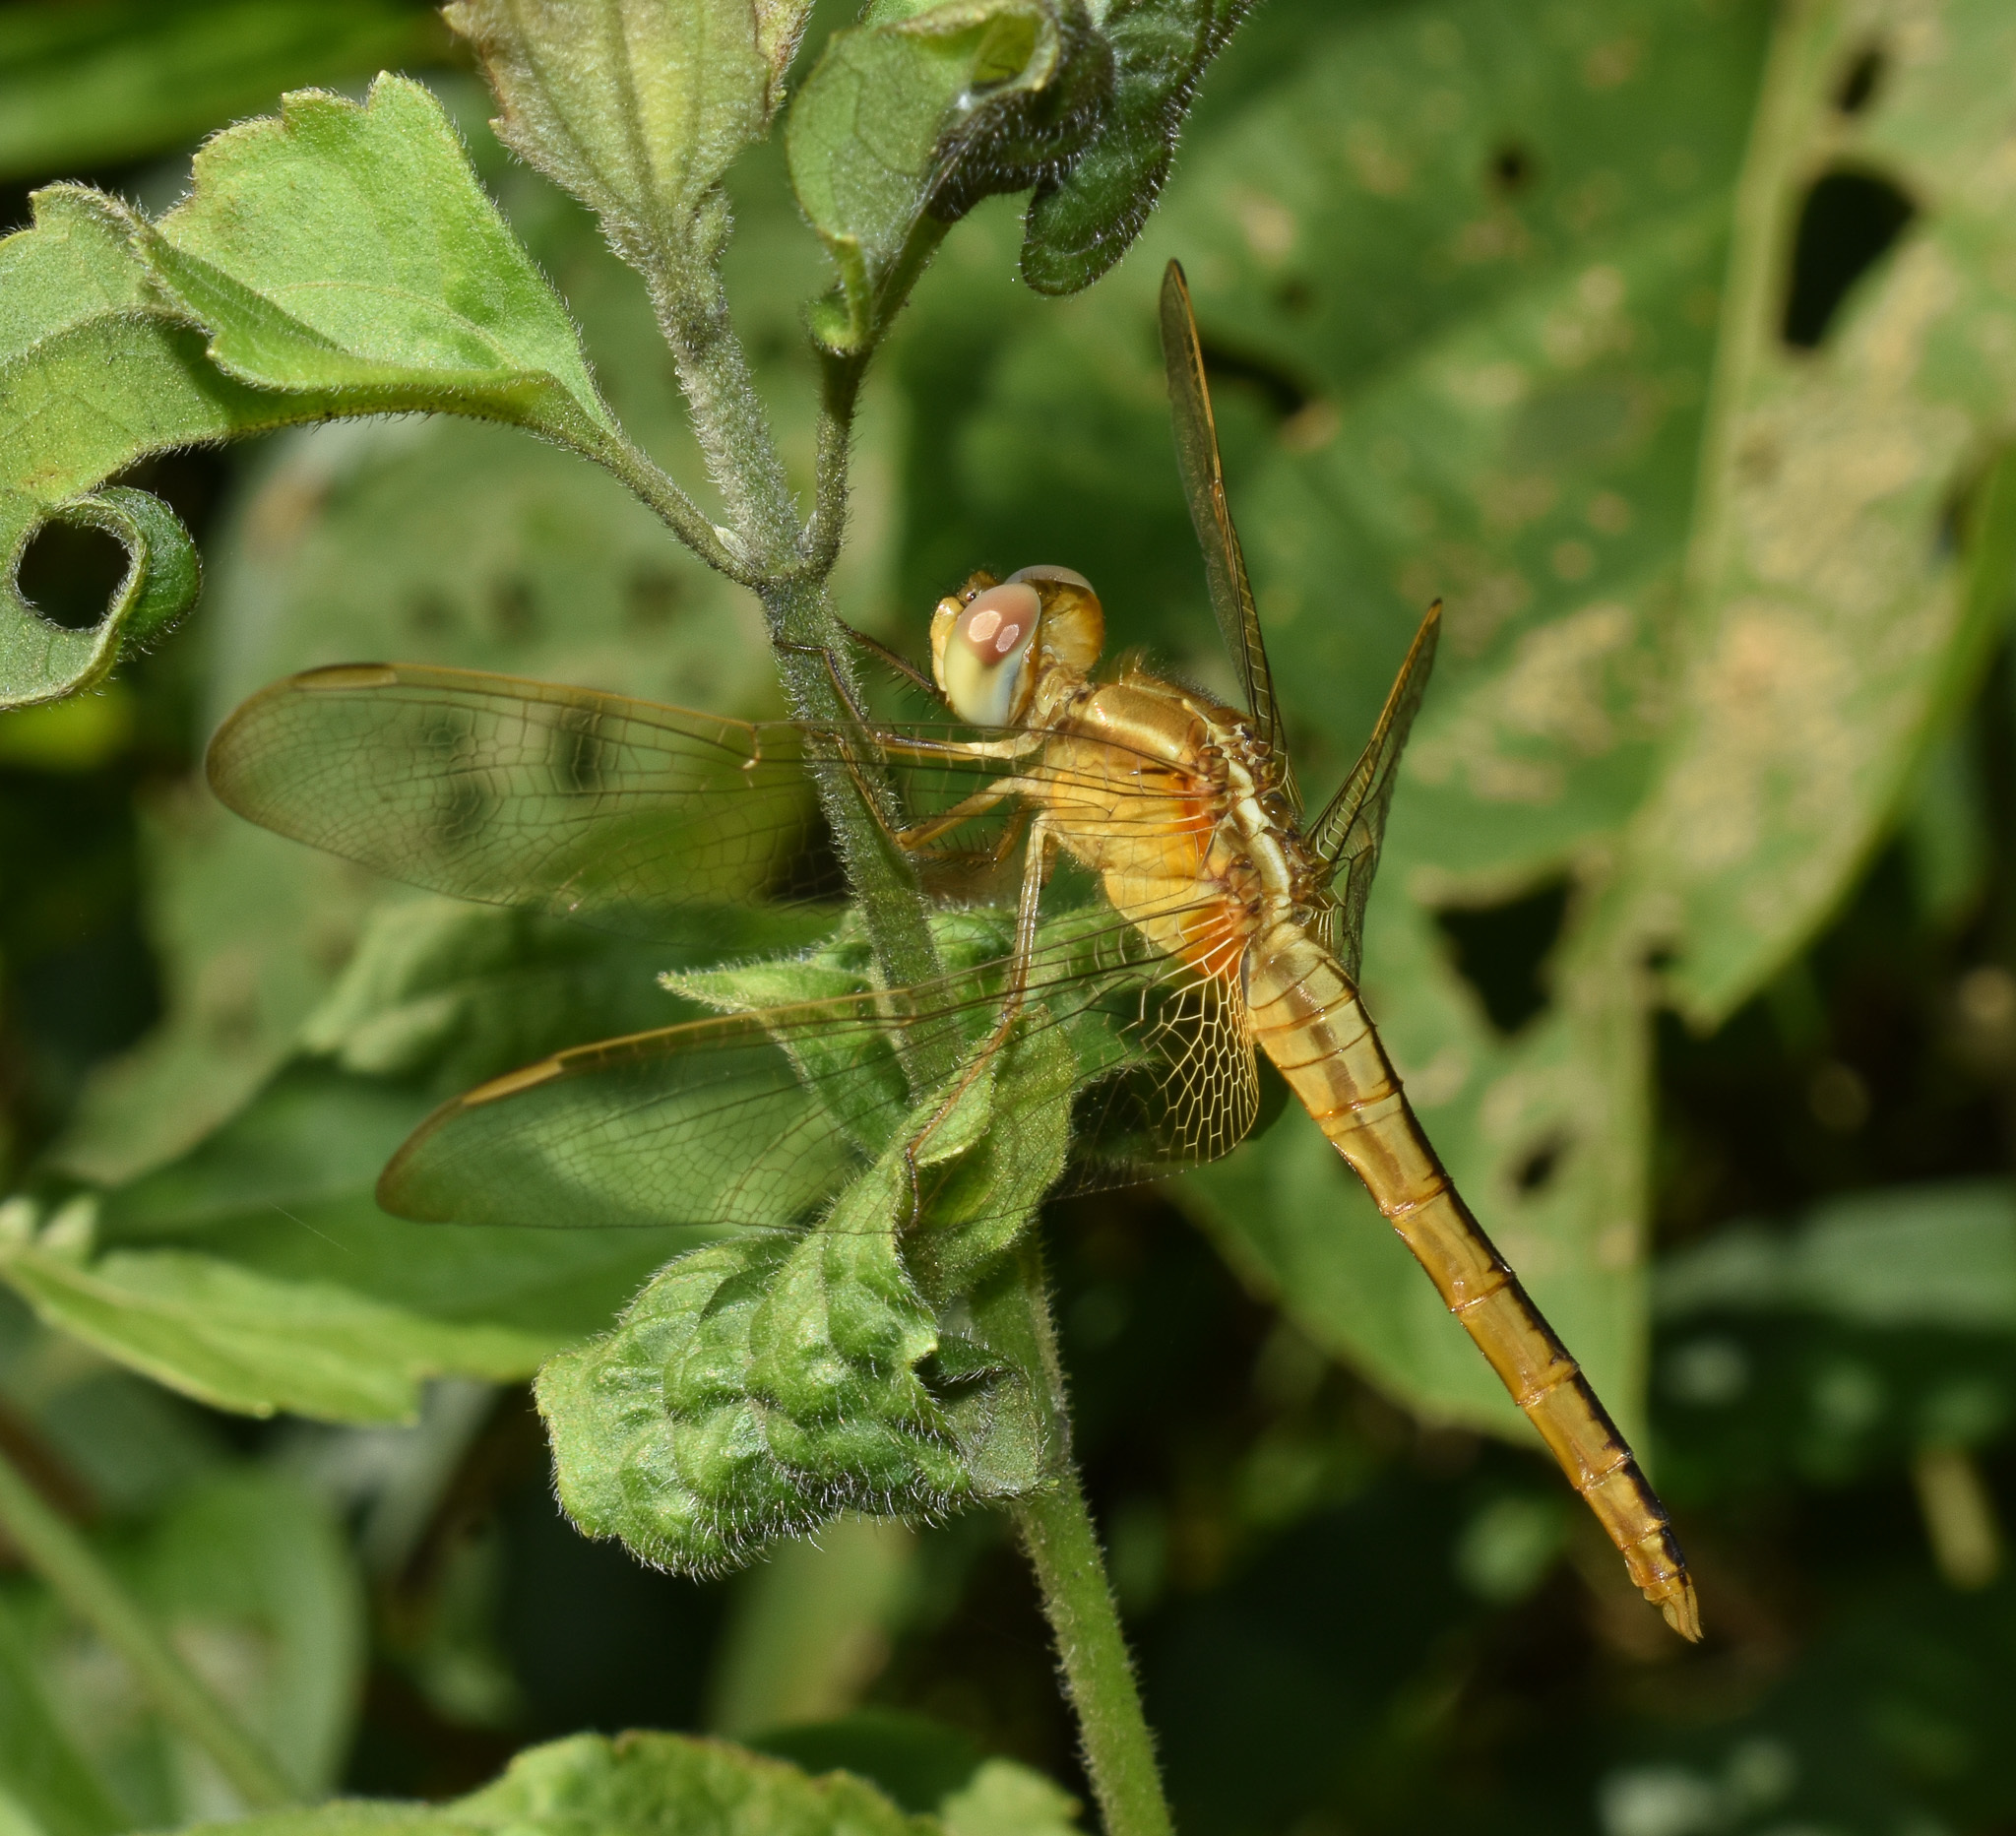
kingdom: Animalia
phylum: Arthropoda
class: Insecta
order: Odonata
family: Libellulidae
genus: Crocothemis
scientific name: Crocothemis servilia
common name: Scarlet skimmer
